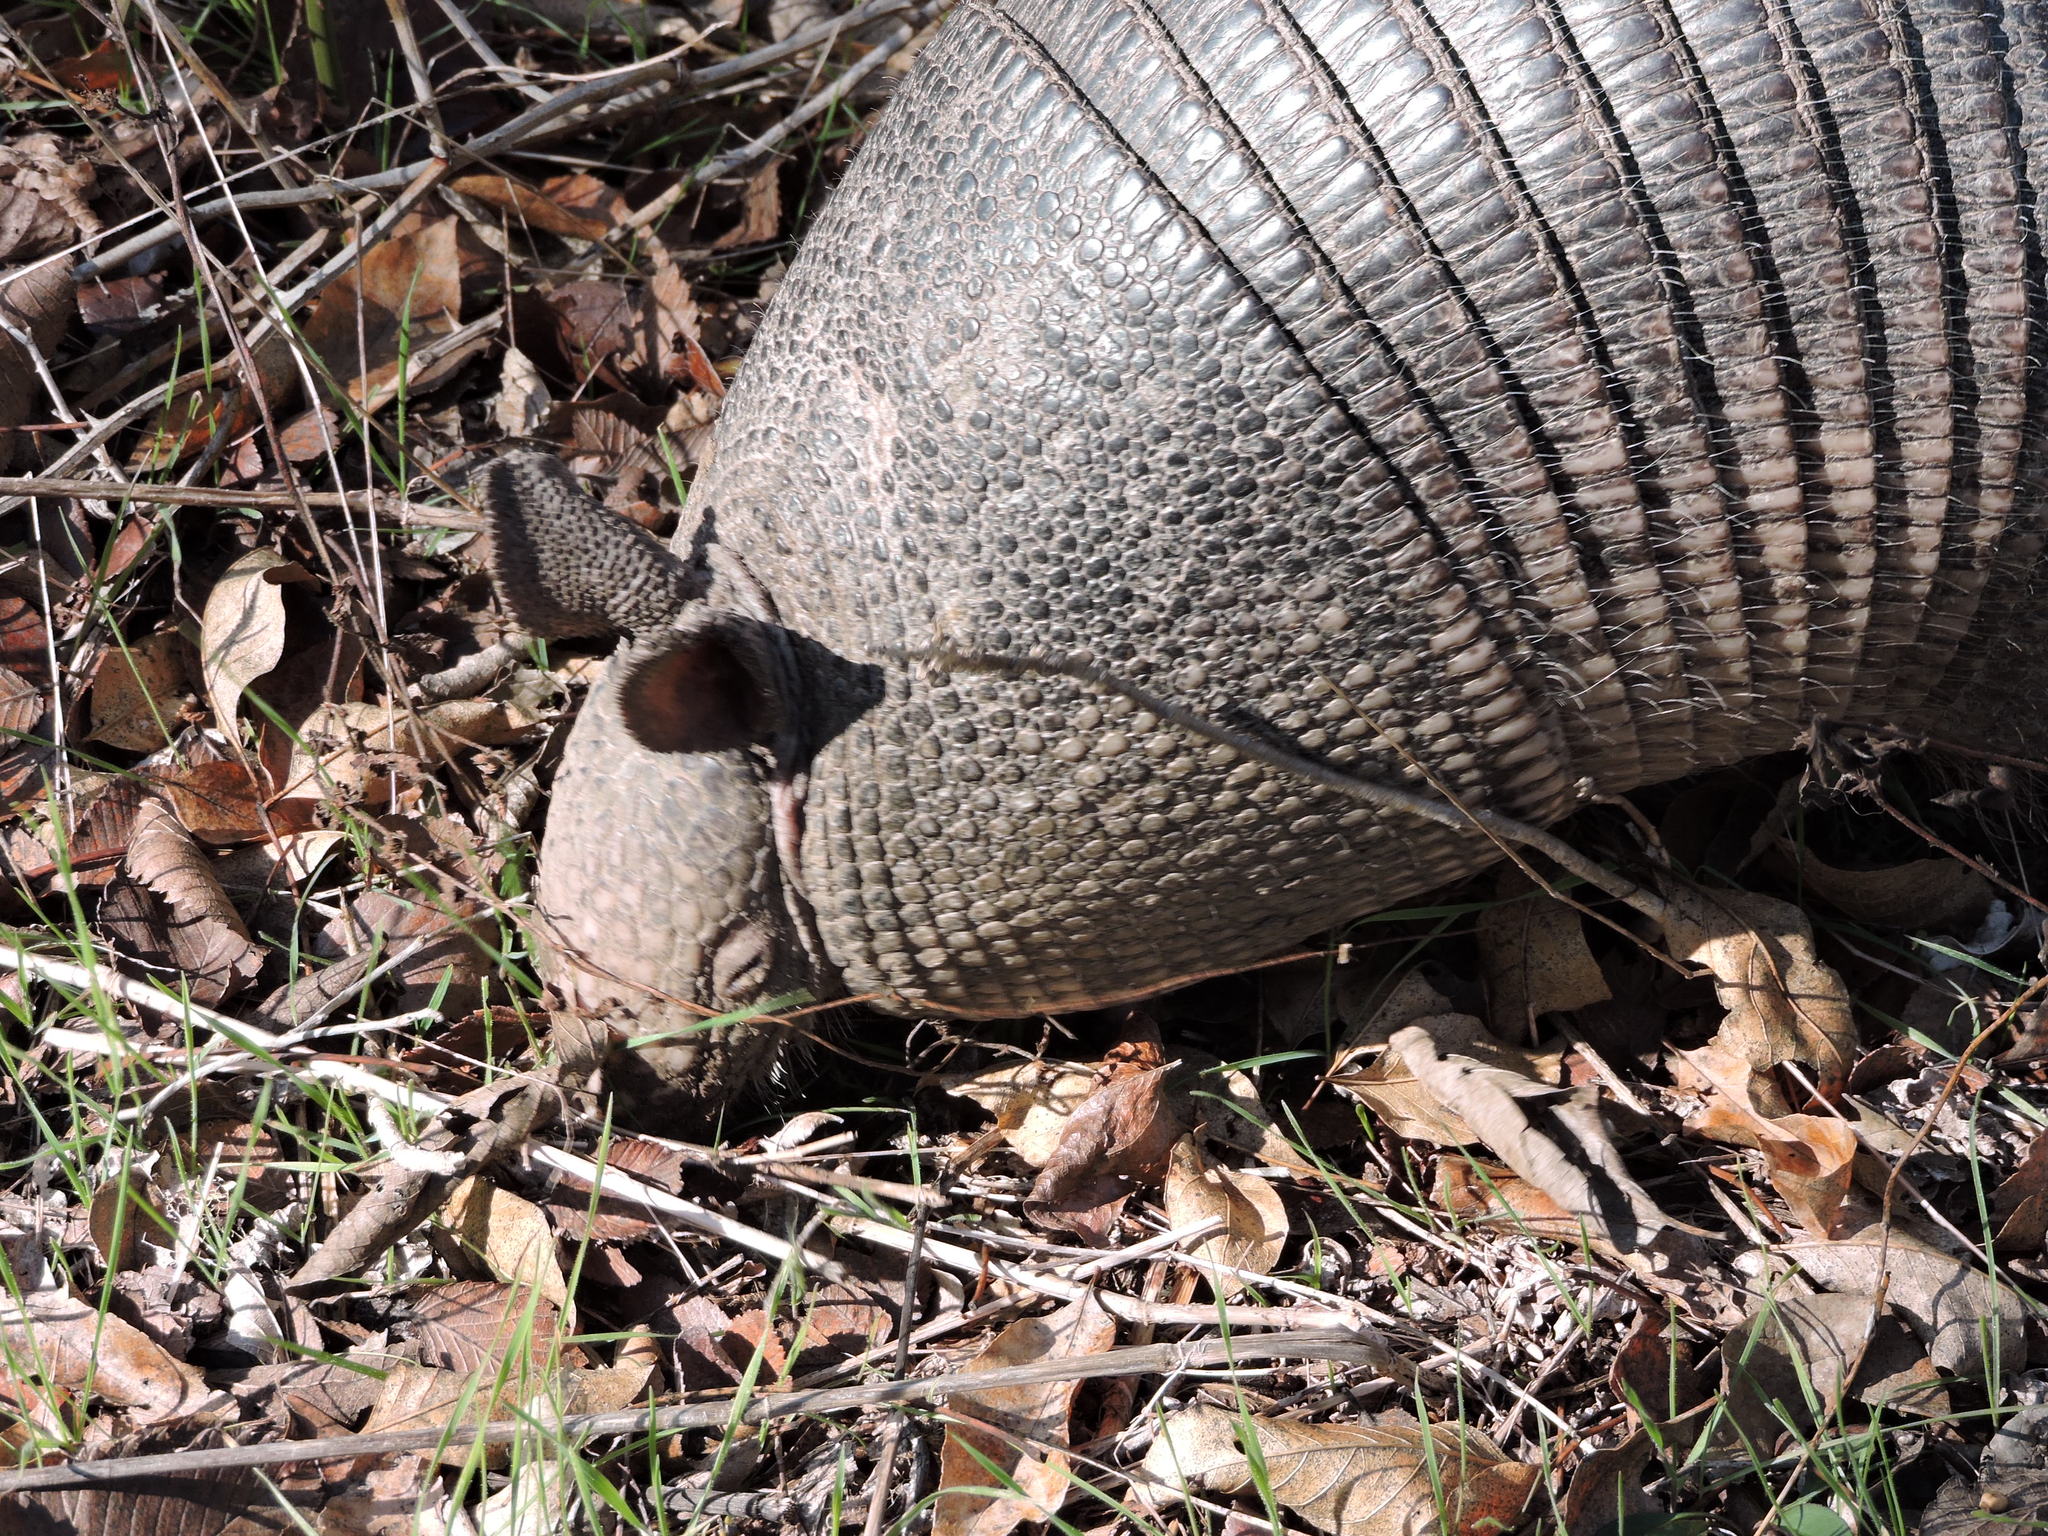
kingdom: Animalia
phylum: Chordata
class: Mammalia
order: Cingulata
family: Dasypodidae
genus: Dasypus
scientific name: Dasypus novemcinctus
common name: Nine-banded armadillo
